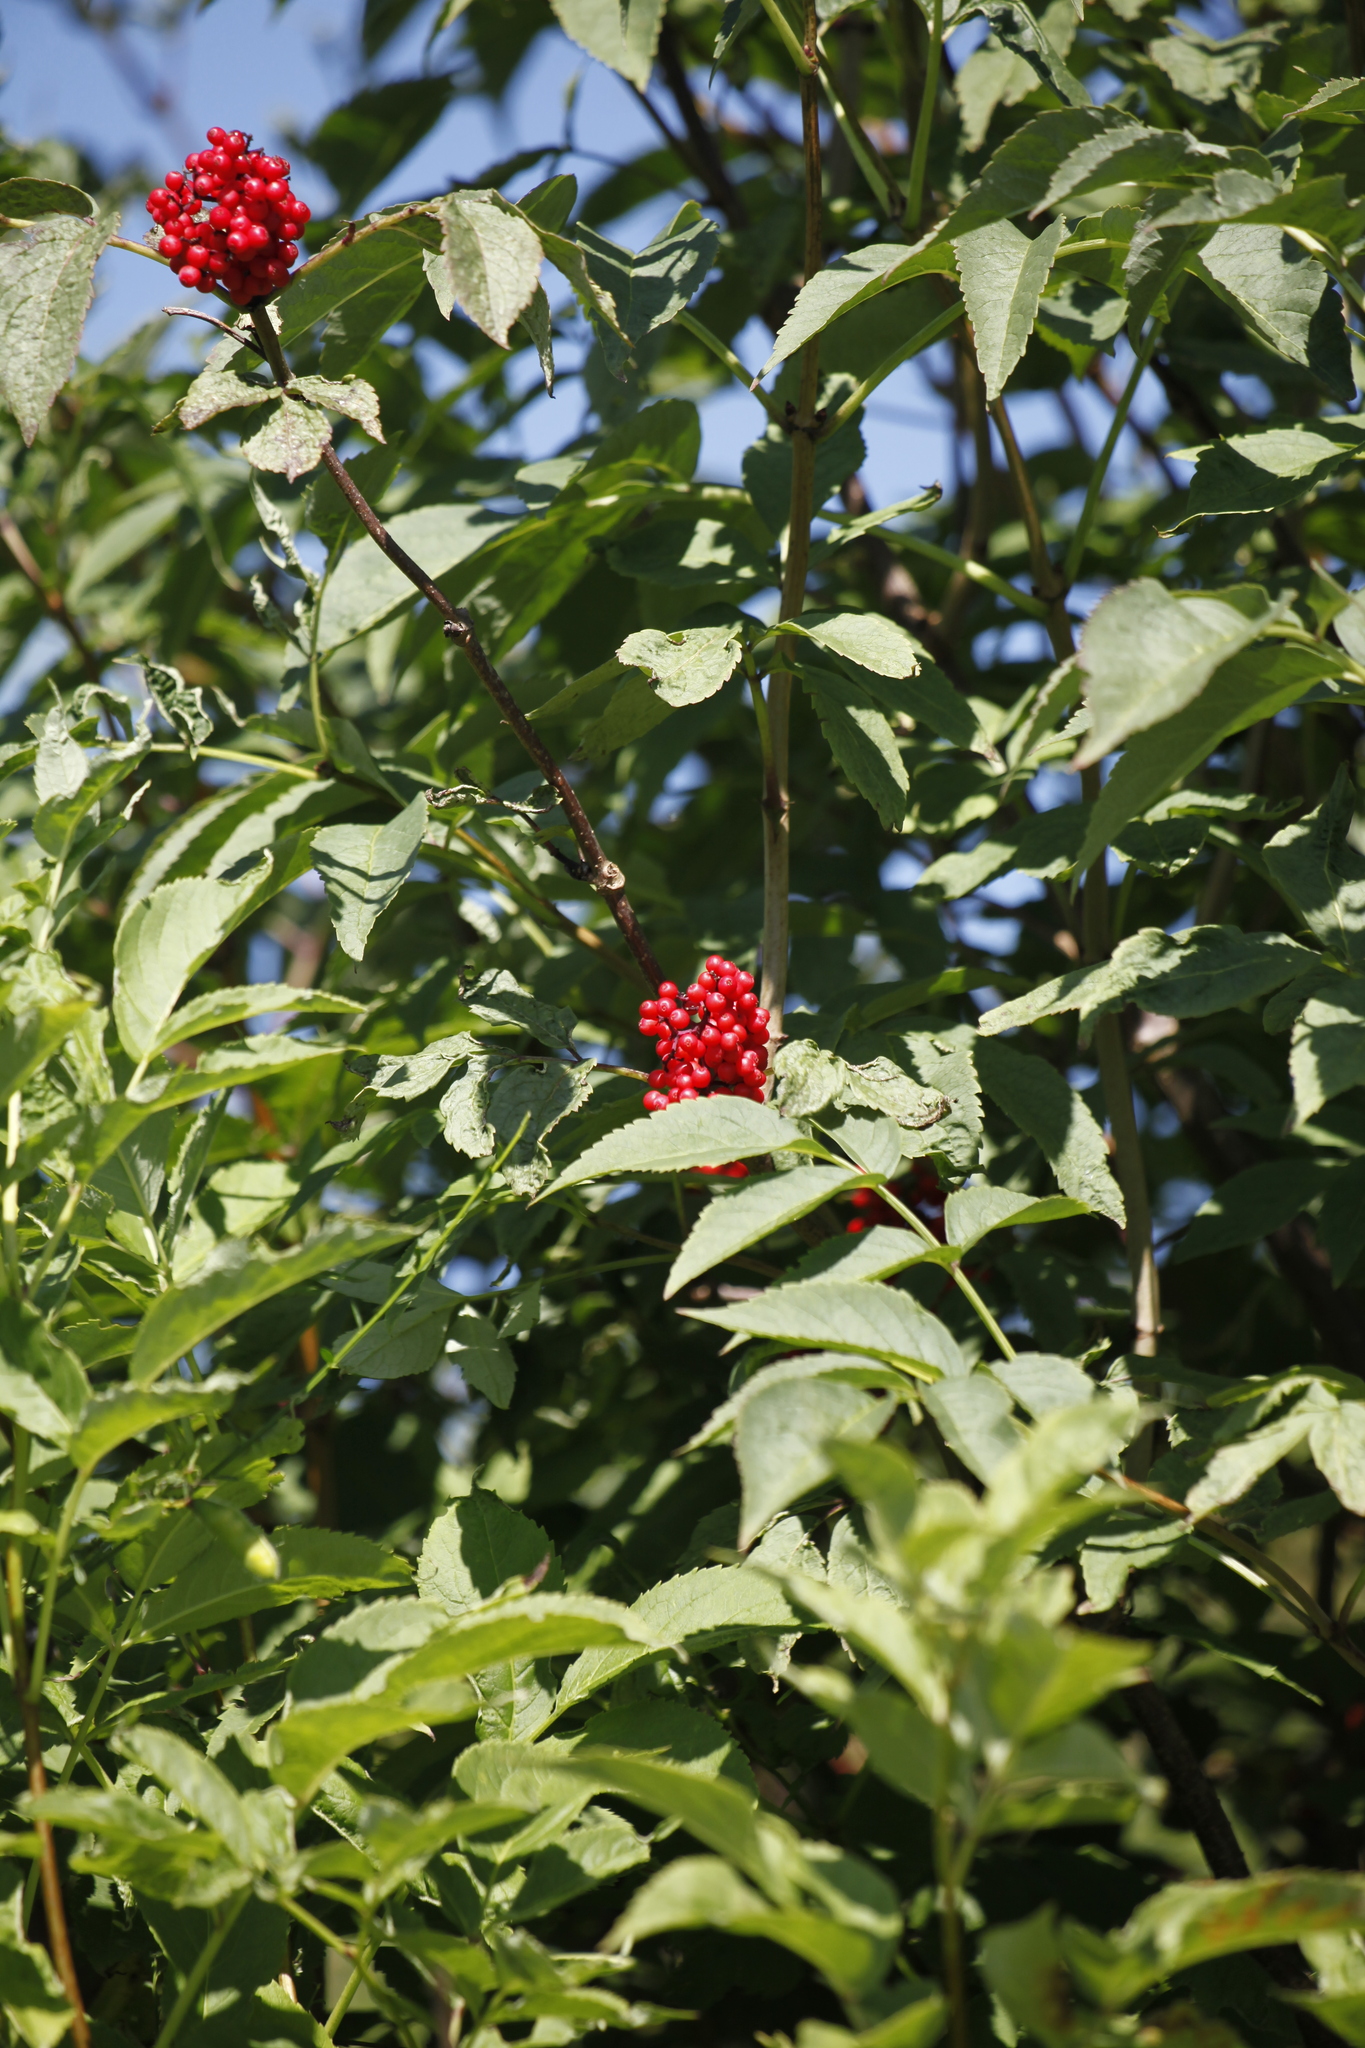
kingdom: Plantae
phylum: Tracheophyta
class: Magnoliopsida
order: Dipsacales
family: Viburnaceae
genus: Sambucus
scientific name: Sambucus racemosa
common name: Red-berried elder
